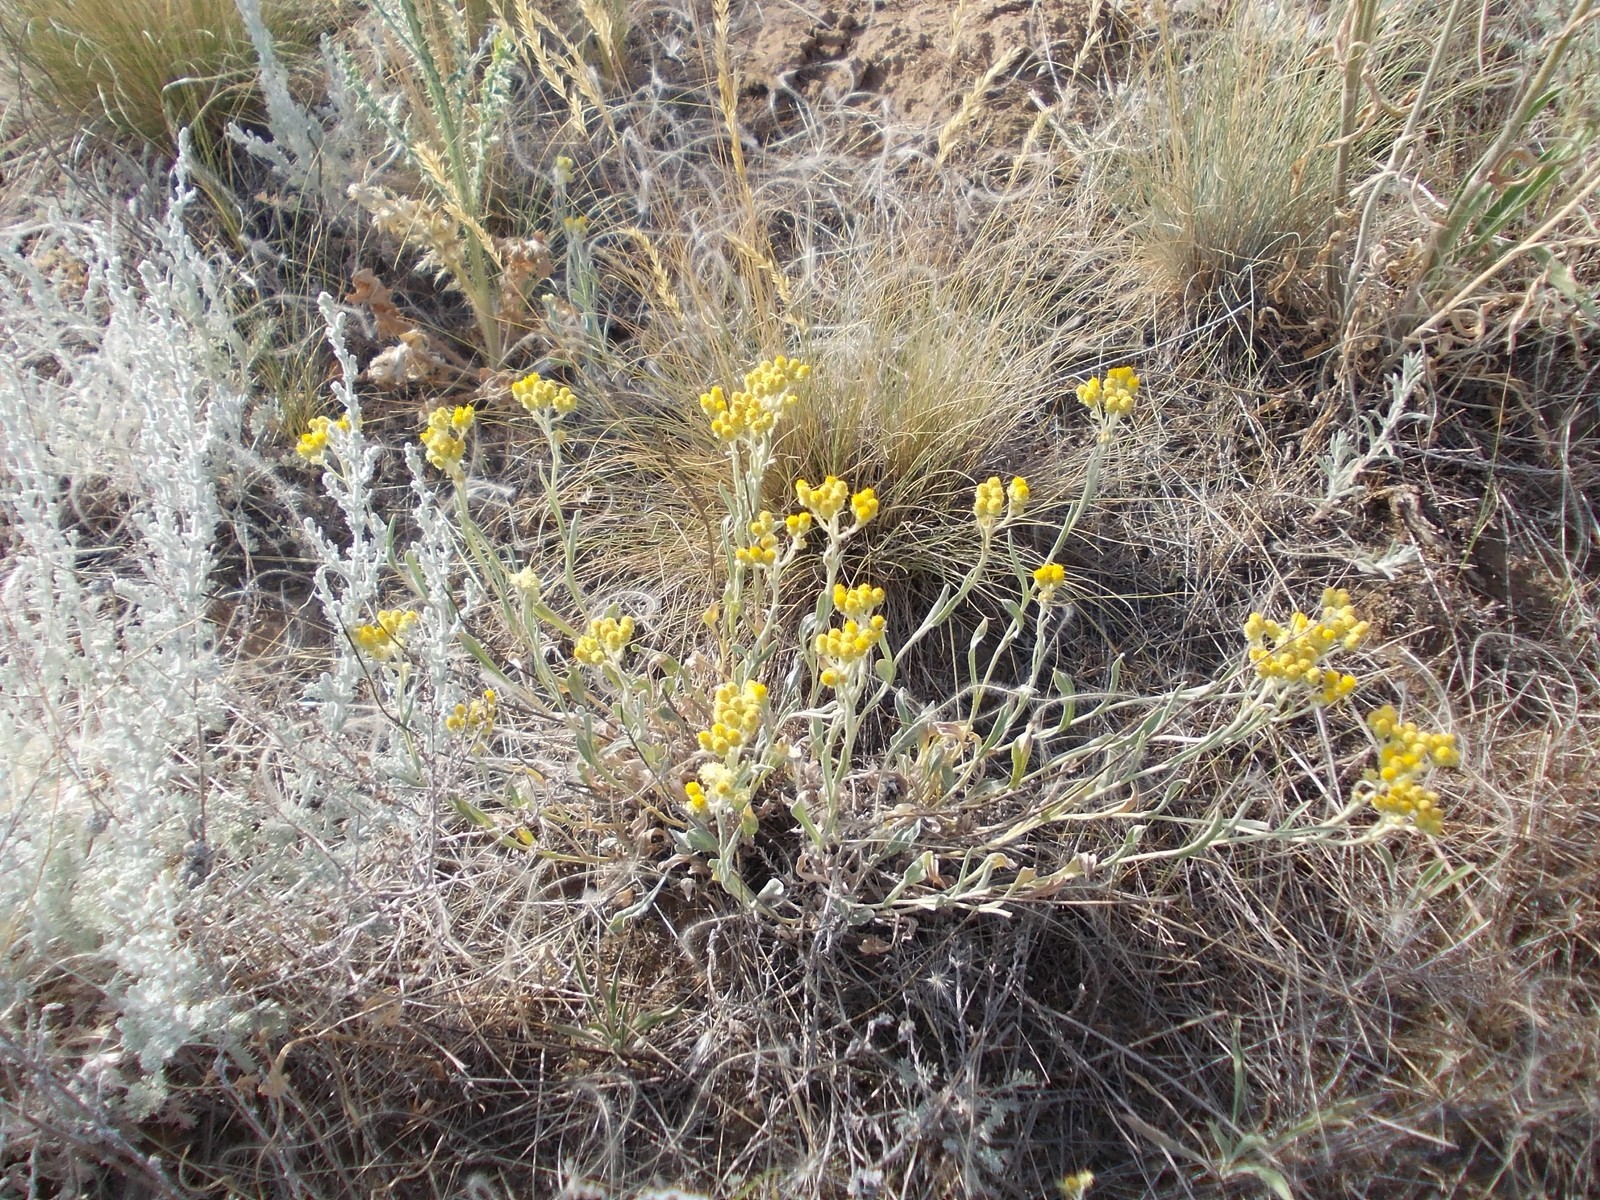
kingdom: Plantae
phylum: Tracheophyta
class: Magnoliopsida
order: Asterales
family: Asteraceae
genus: Helichrysum
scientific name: Helichrysum arenarium
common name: Strawflower
